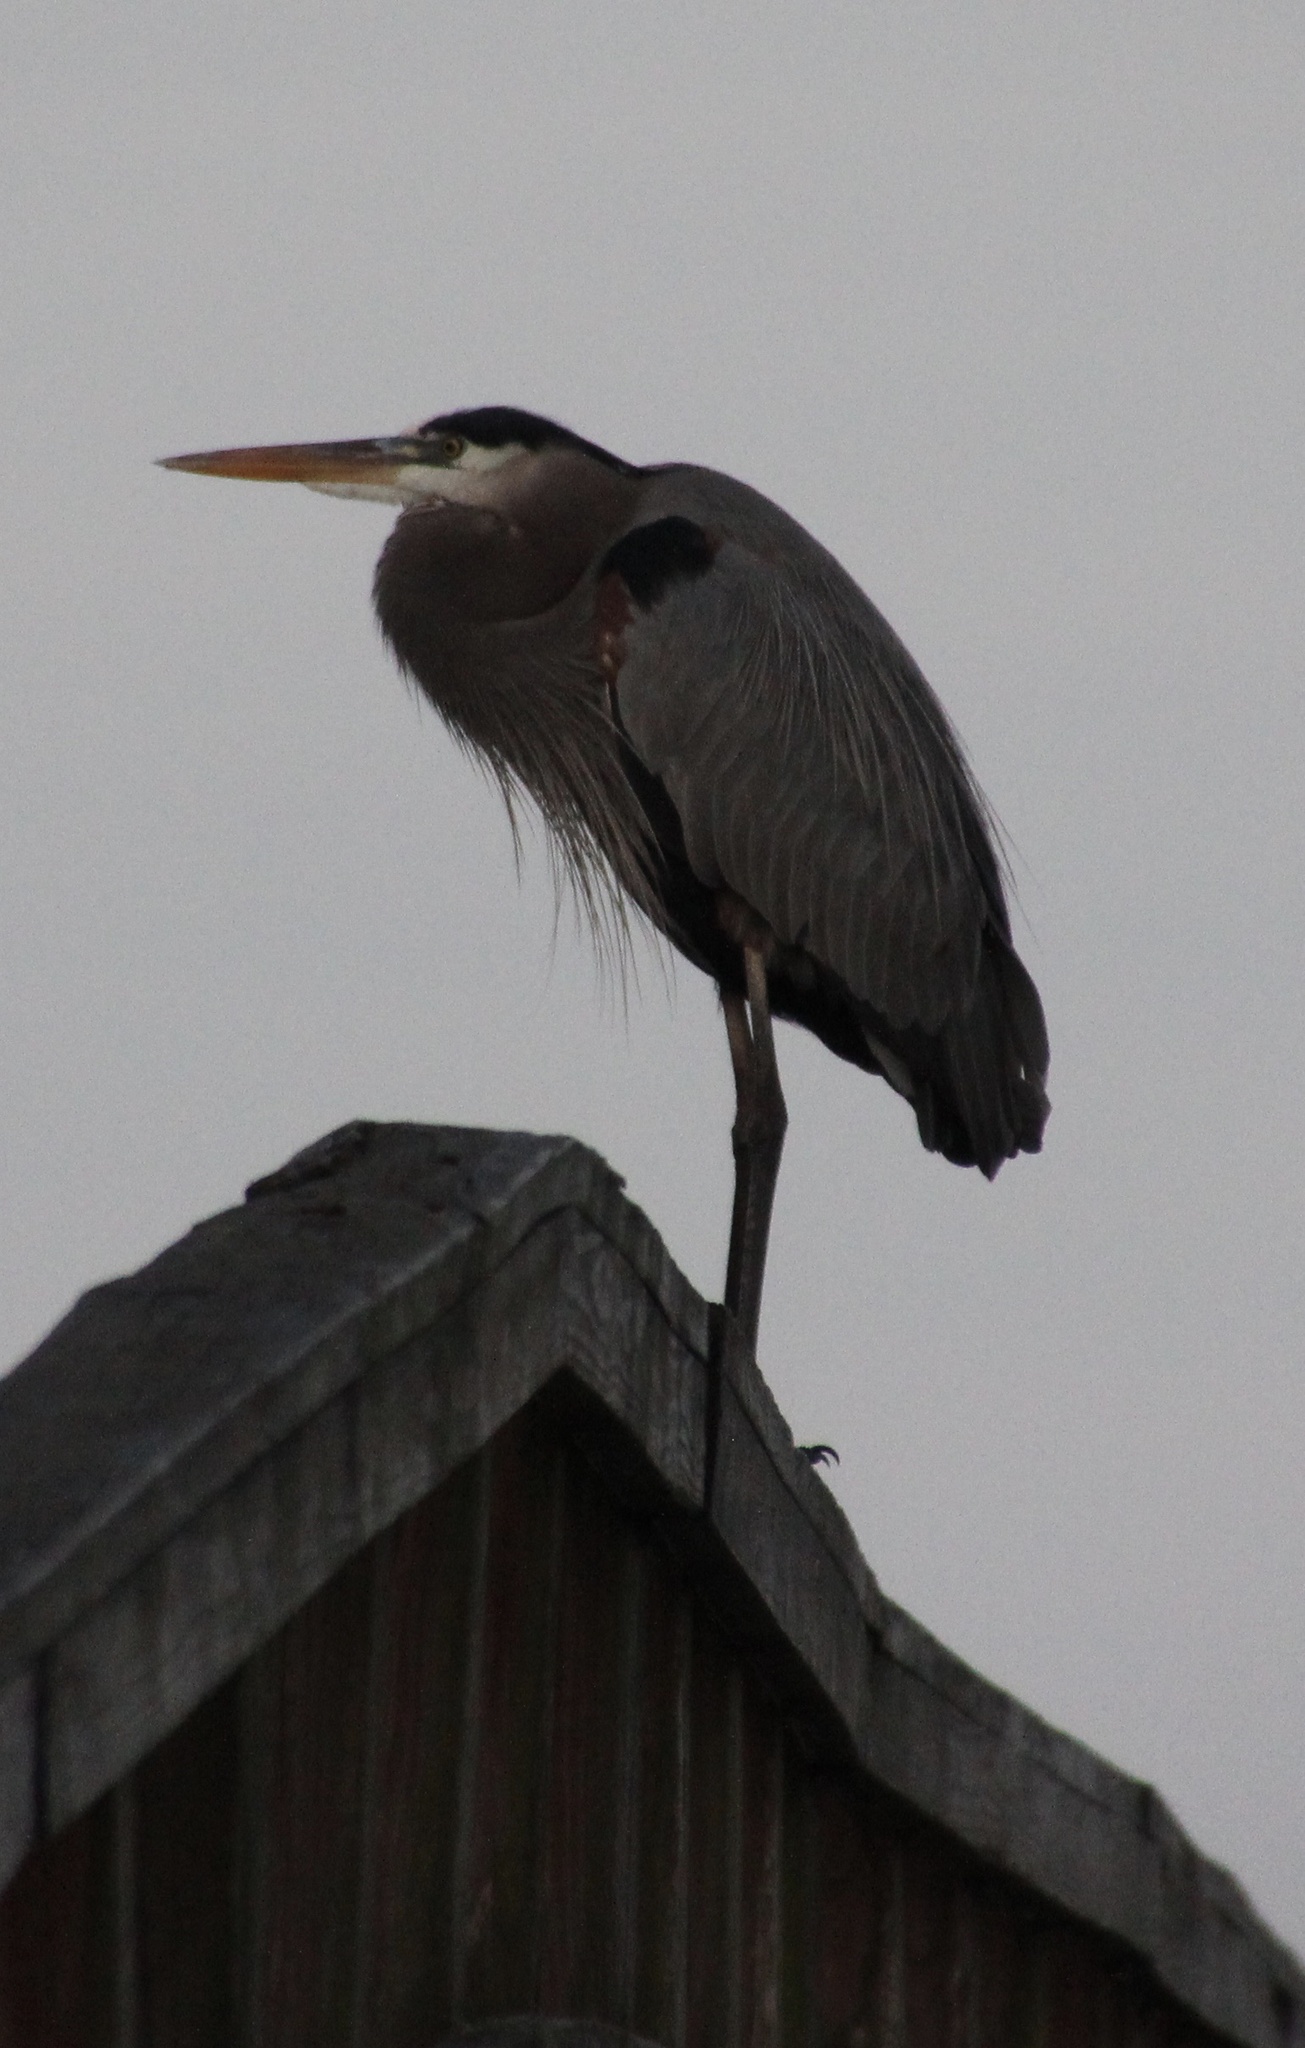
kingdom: Animalia
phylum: Chordata
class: Aves
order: Pelecaniformes
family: Ardeidae
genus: Ardea
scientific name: Ardea herodias
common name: Great blue heron
